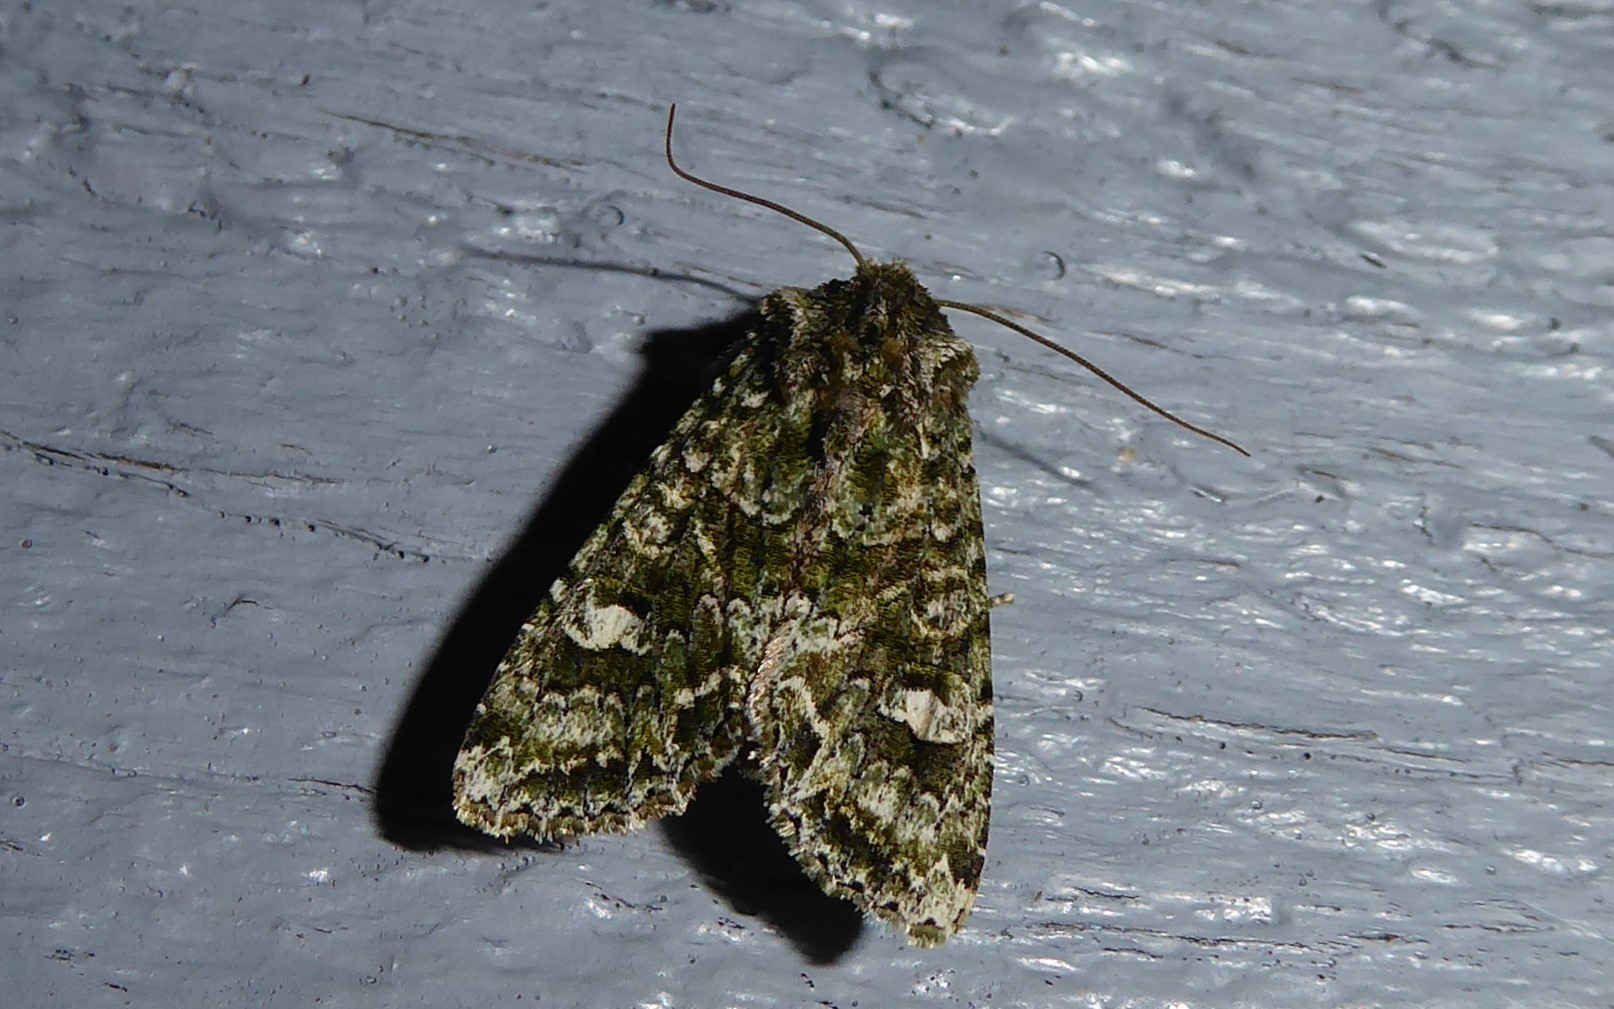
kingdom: Animalia
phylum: Arthropoda
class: Insecta
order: Lepidoptera
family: Noctuidae
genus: Ichneutica
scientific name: Ichneutica
